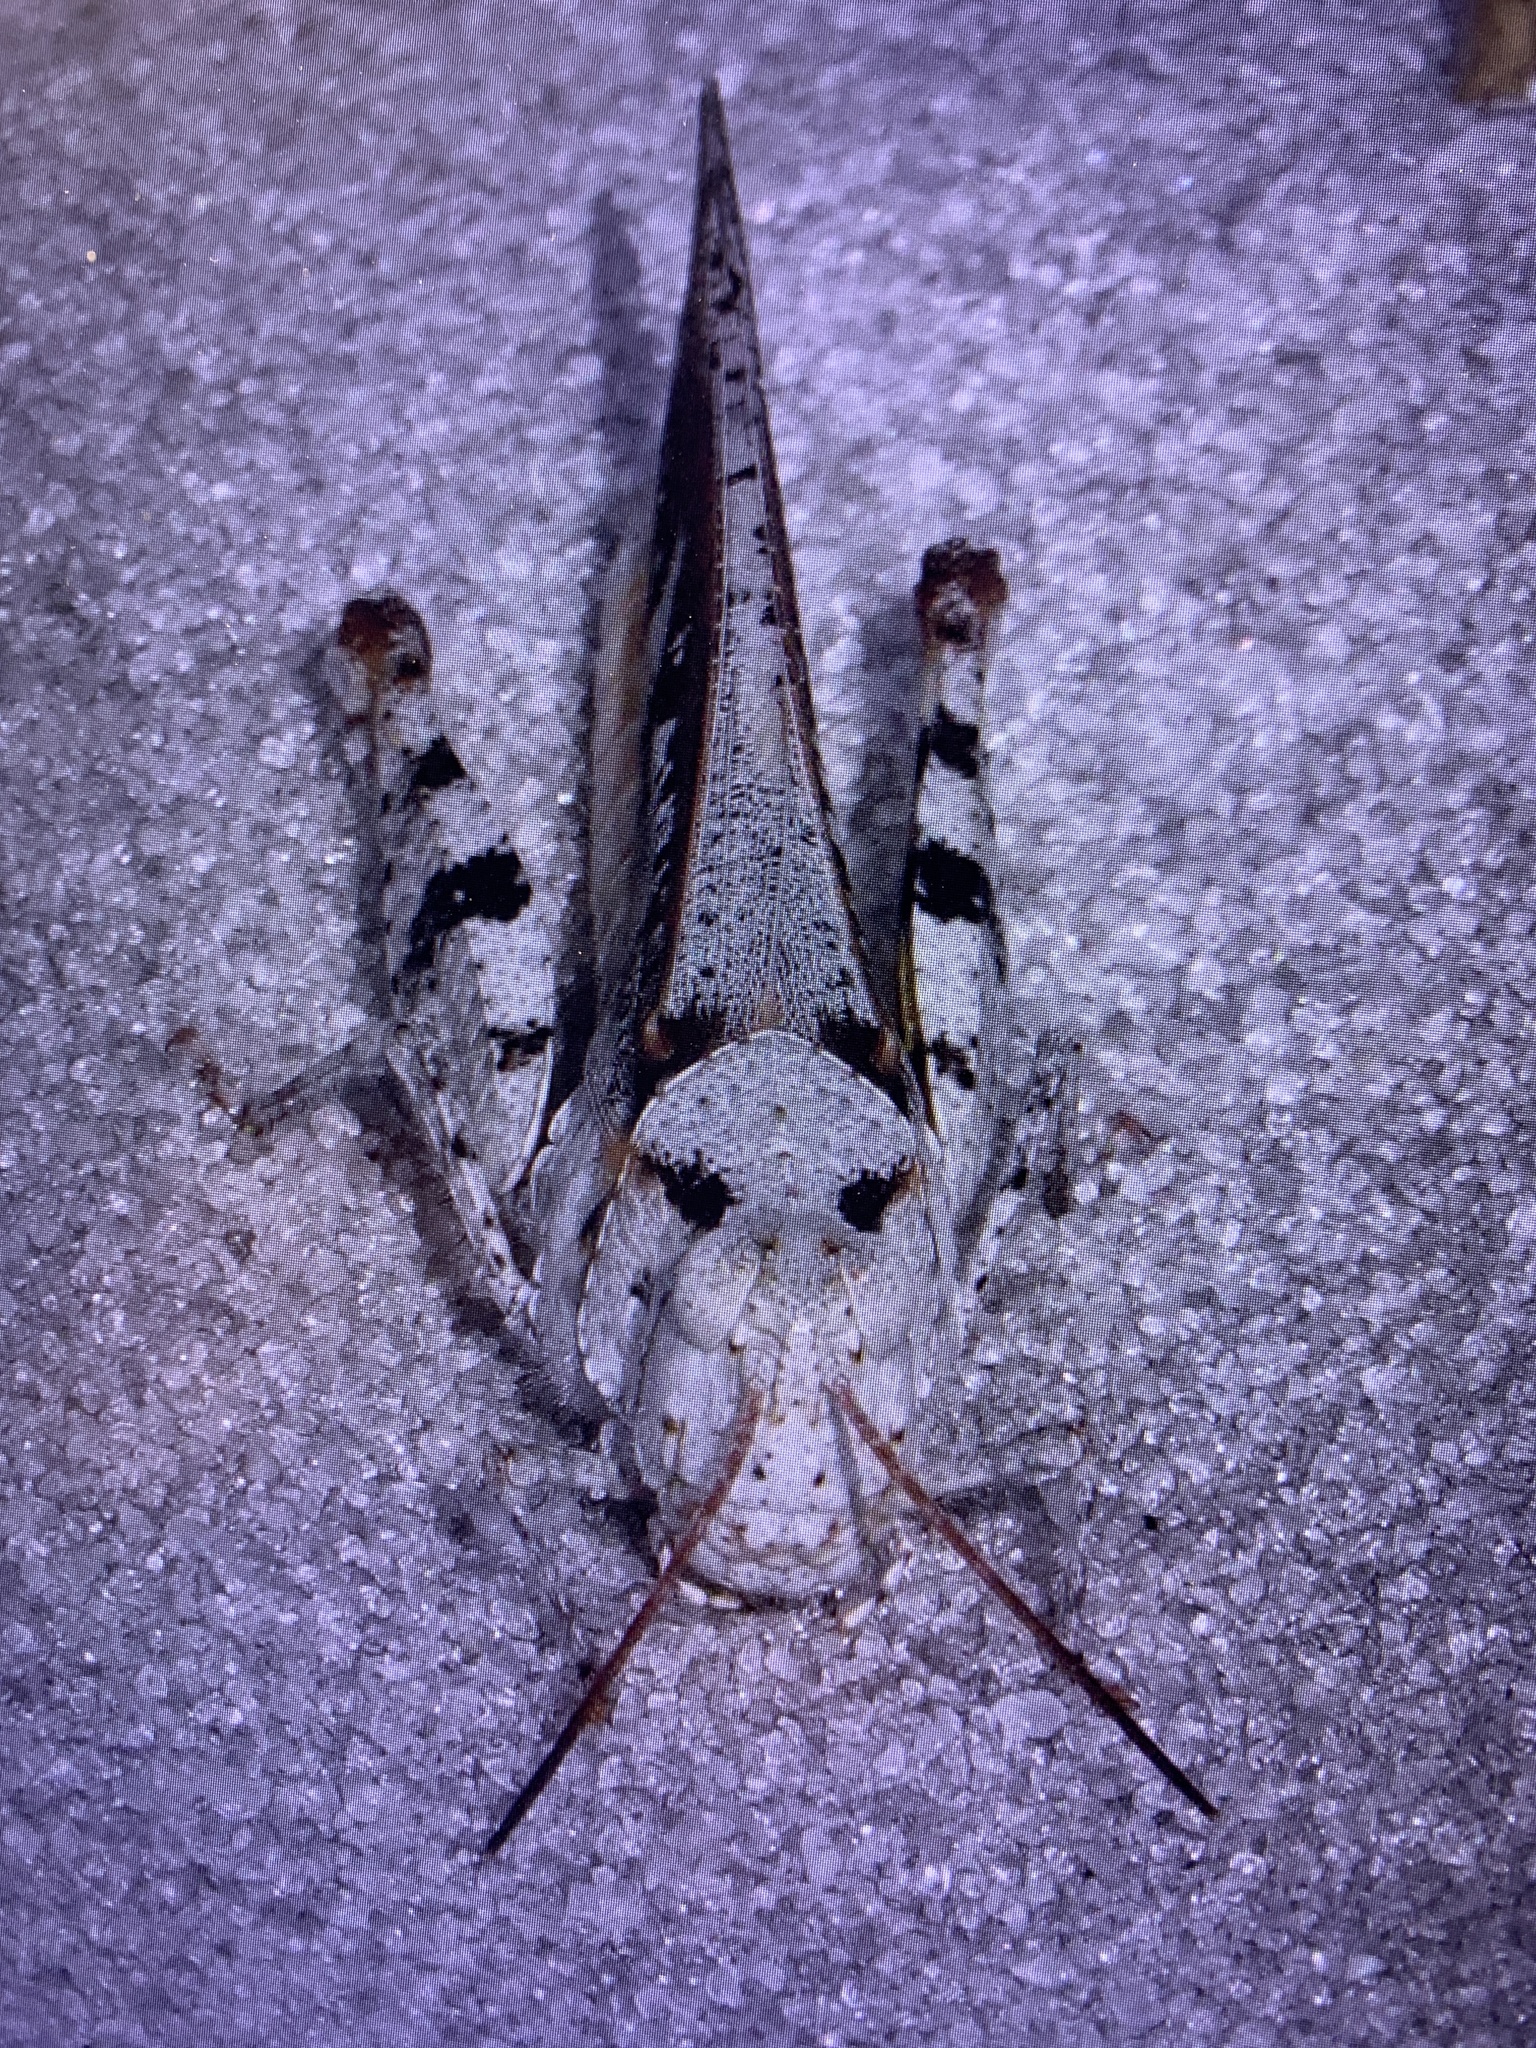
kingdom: Animalia
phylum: Arthropoda
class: Insecta
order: Orthoptera
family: Acrididae
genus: Spharagemon
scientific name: Spharagemon marmoratum
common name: Marbled grasshopper
